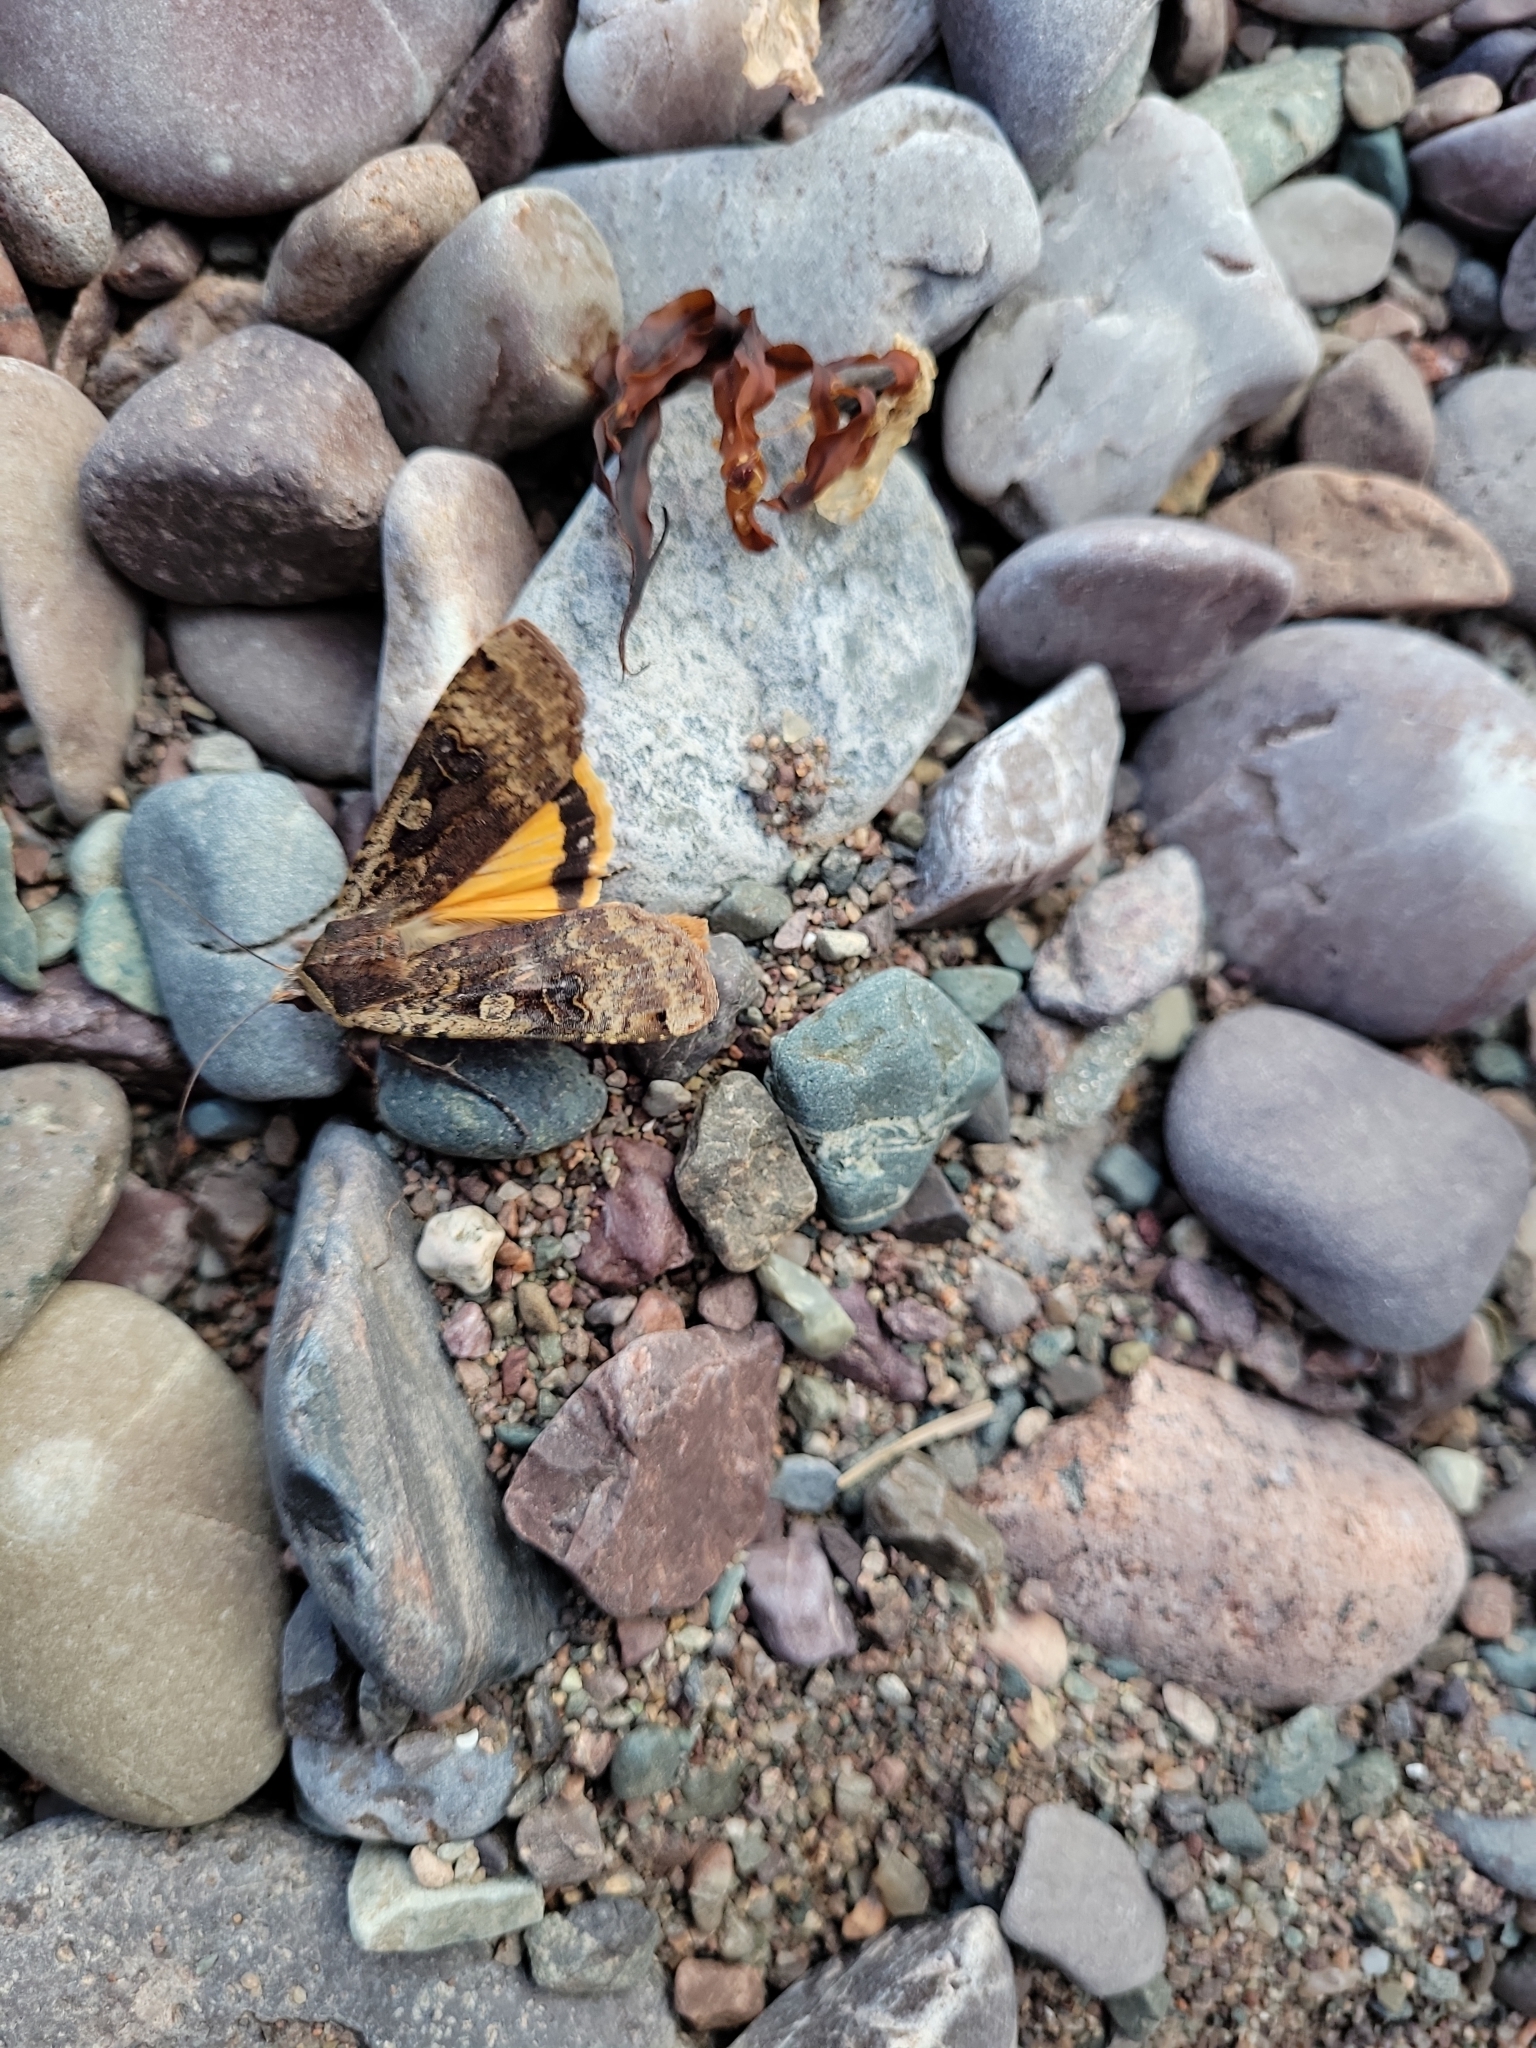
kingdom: Animalia
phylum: Arthropoda
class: Insecta
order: Lepidoptera
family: Noctuidae
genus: Noctua
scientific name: Noctua pronuba
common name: Large yellow underwing
